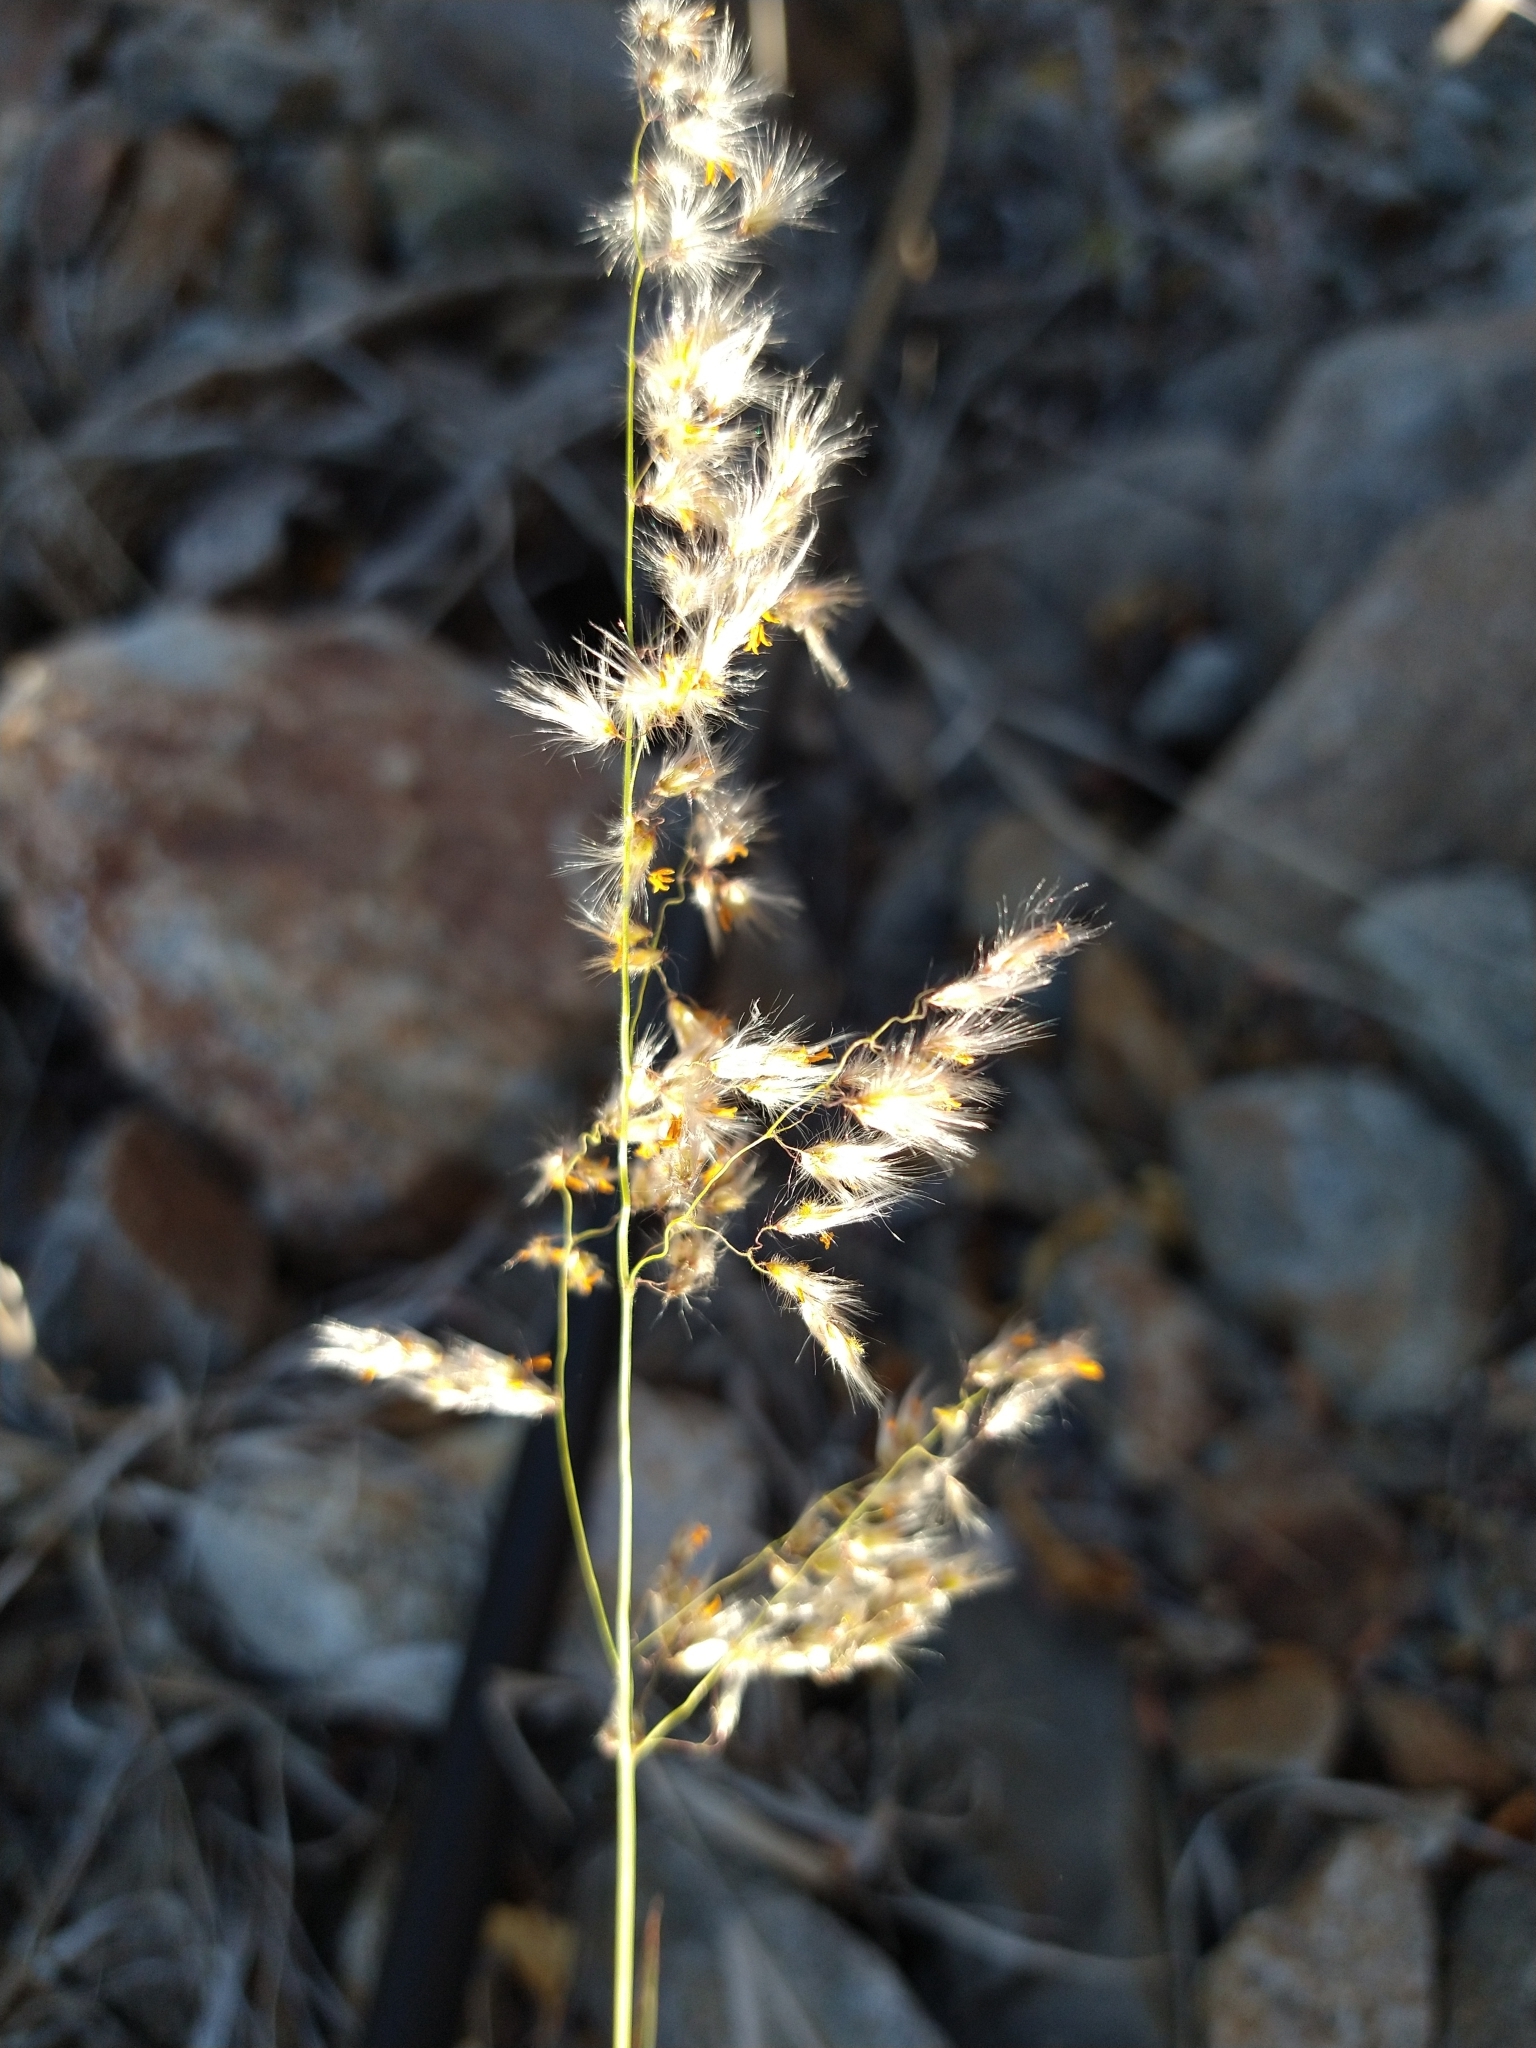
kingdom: Plantae
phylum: Tracheophyta
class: Liliopsida
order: Poales
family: Poaceae
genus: Melinis
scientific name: Melinis repens
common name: Rose natal grass
